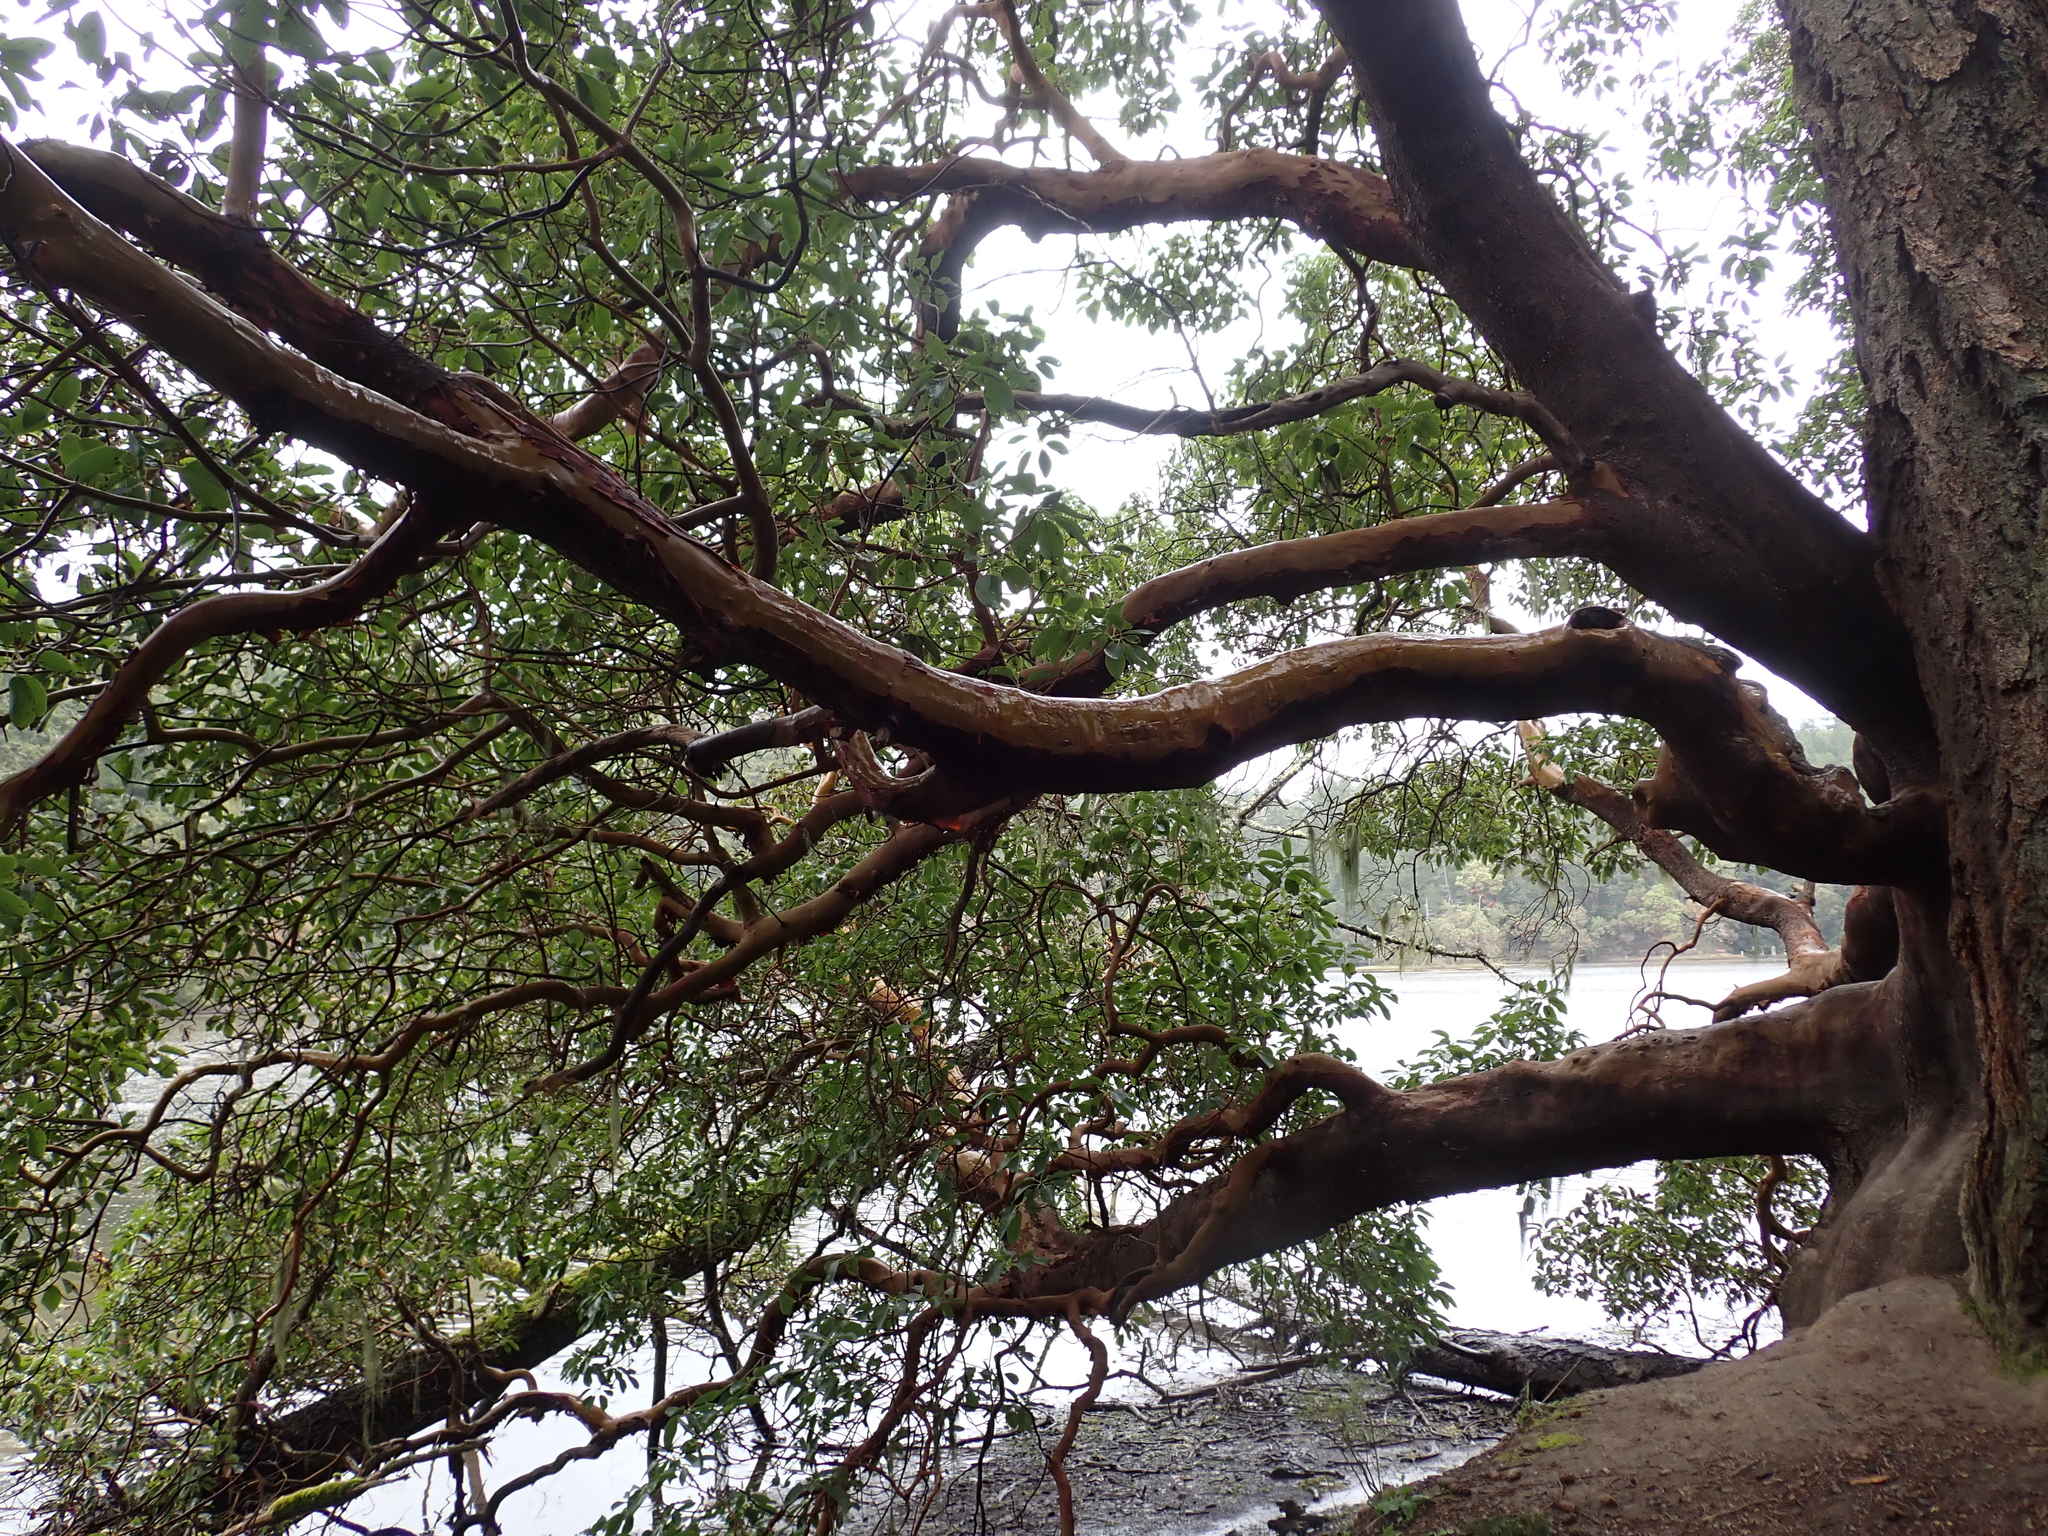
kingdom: Plantae
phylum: Tracheophyta
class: Magnoliopsida
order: Ericales
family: Ericaceae
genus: Arbutus
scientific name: Arbutus menziesii
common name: Pacific madrone
